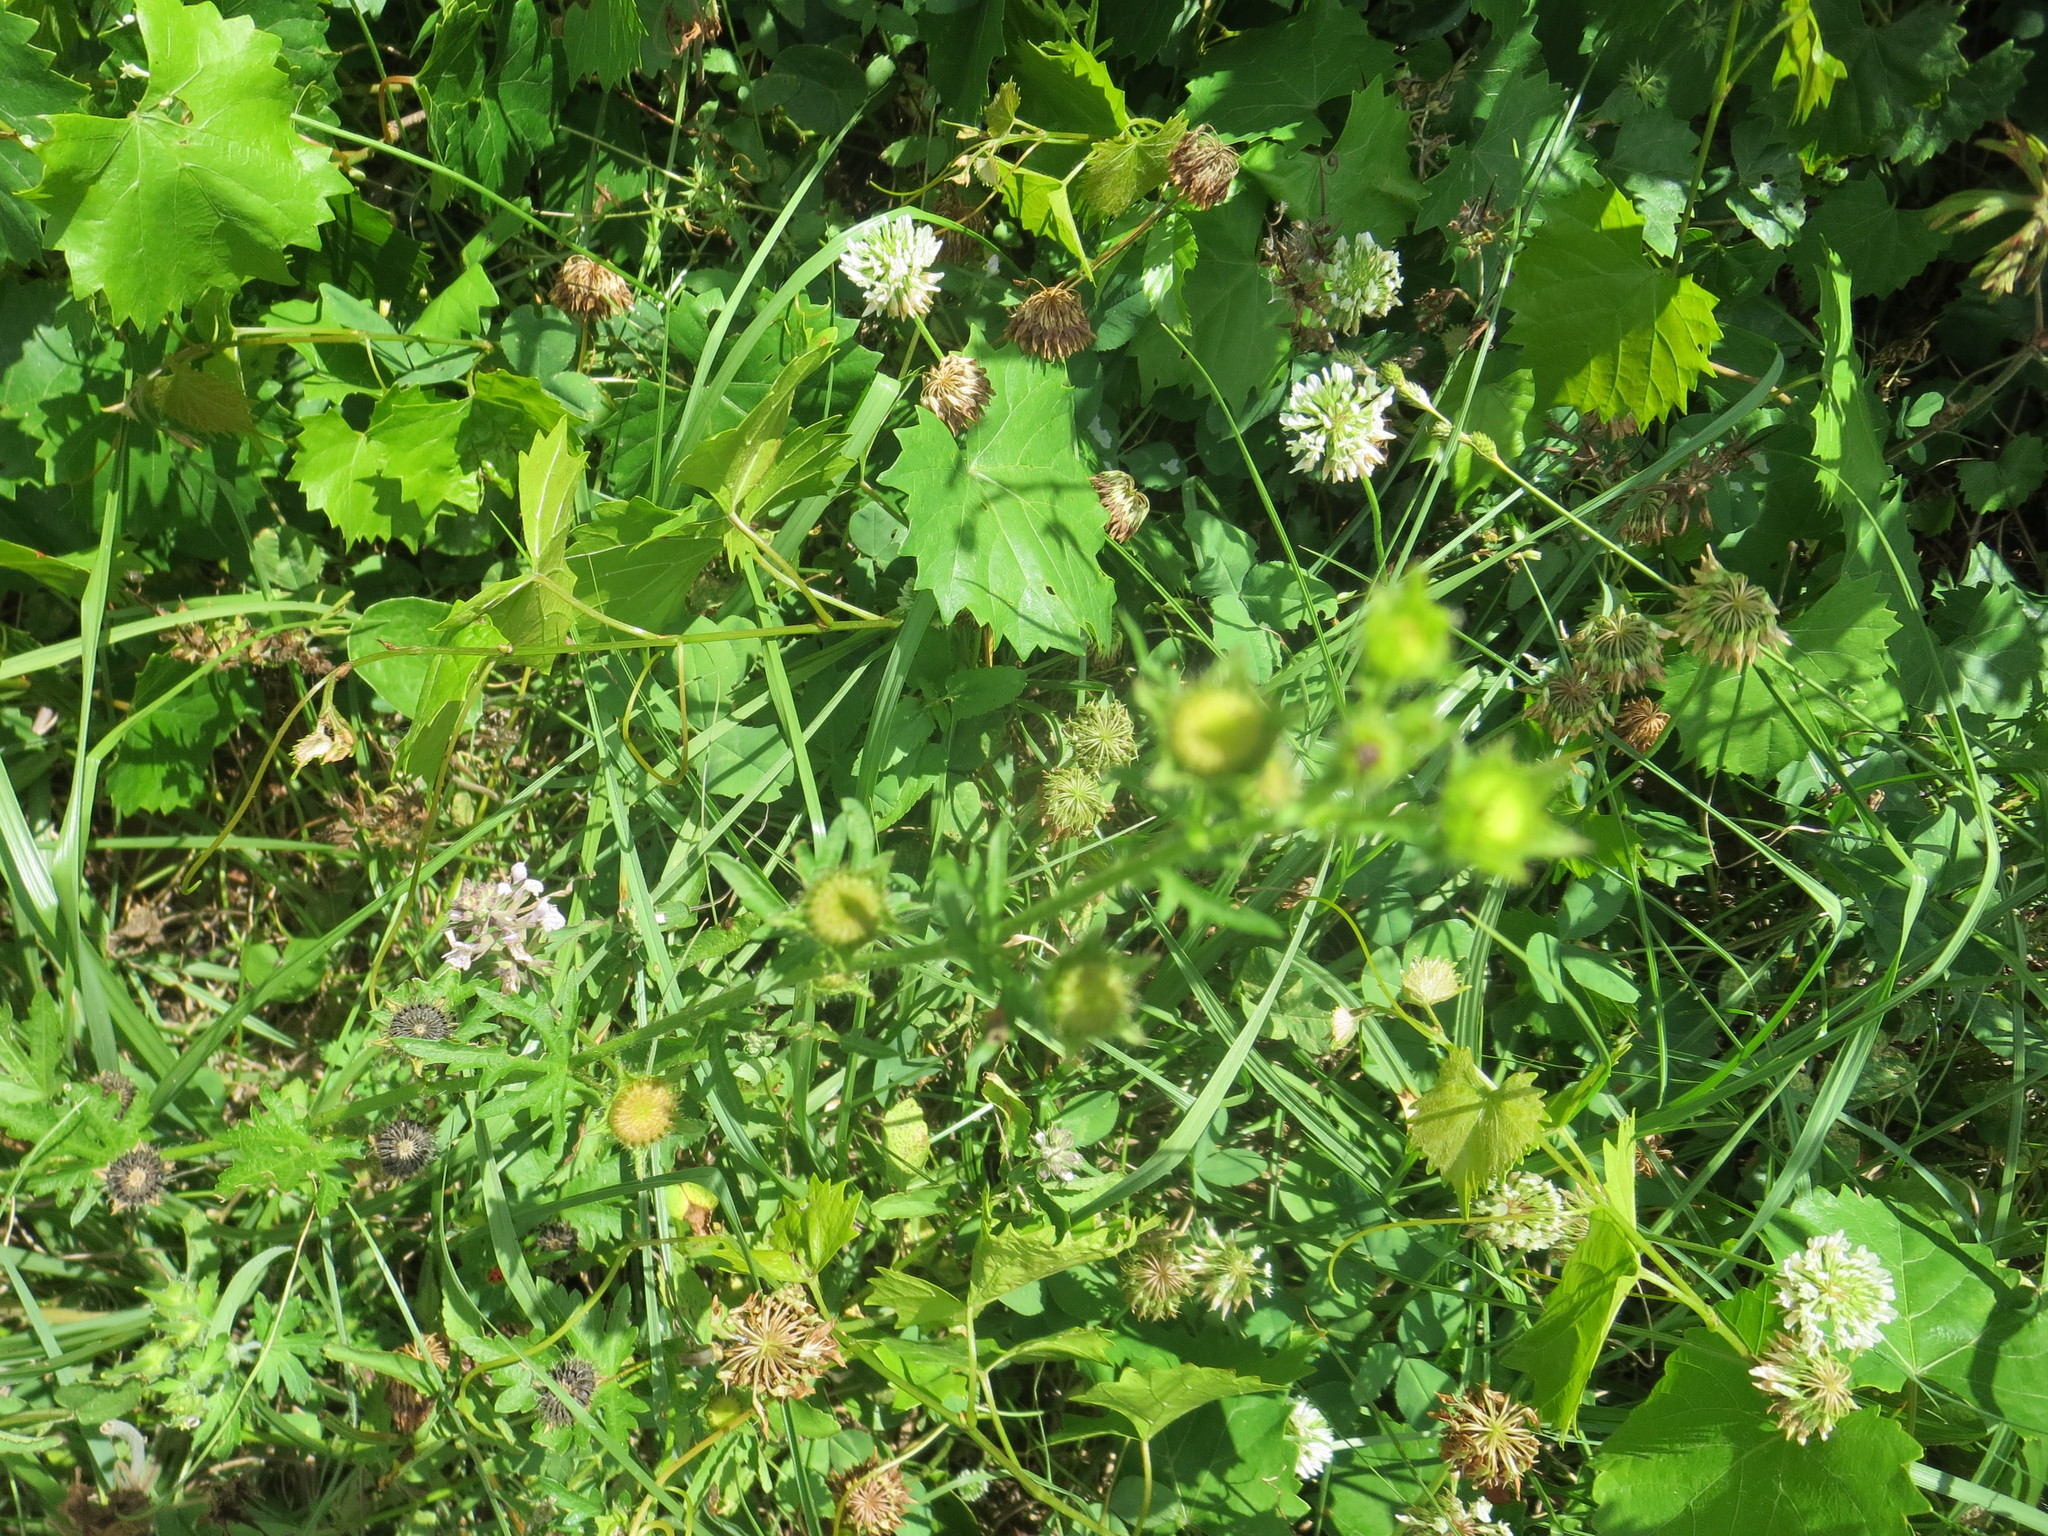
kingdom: Plantae
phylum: Tracheophyta
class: Magnoliopsida
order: Malvales
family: Malvaceae
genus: Modiola
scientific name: Modiola caroliniana
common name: Carolina bristlemallow
